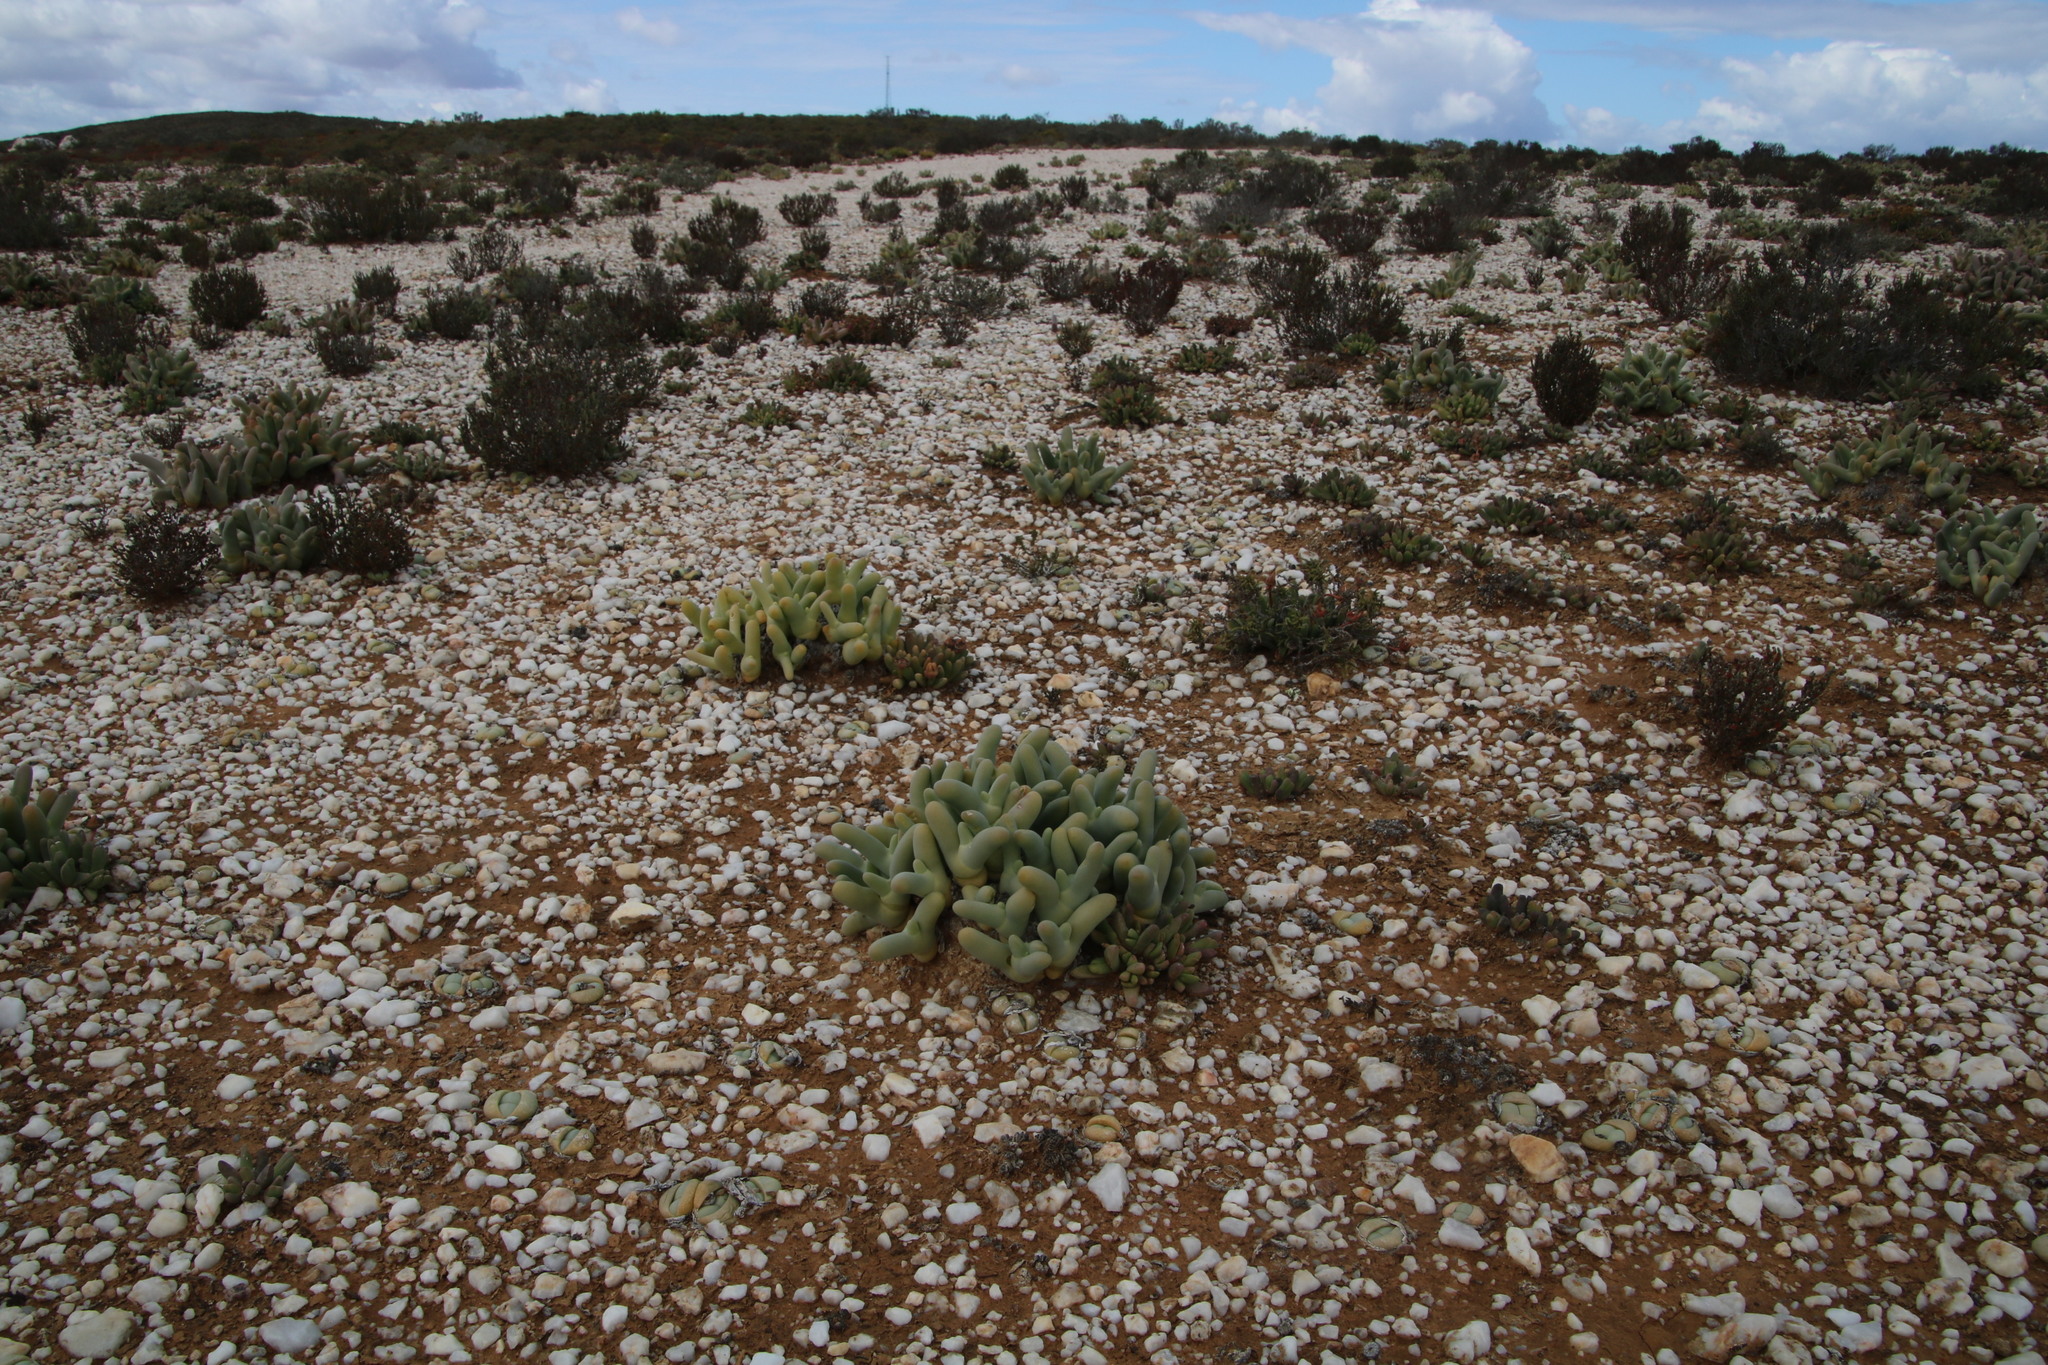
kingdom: Plantae
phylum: Tracheophyta
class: Magnoliopsida
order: Caryophyllales
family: Aizoaceae
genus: Mesembryanthemum
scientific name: Mesembryanthemum digitatum
